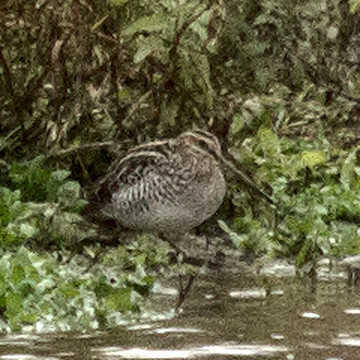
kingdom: Animalia
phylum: Chordata
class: Aves
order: Charadriiformes
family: Scolopacidae
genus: Gallinago
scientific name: Gallinago delicata
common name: Wilson's snipe
